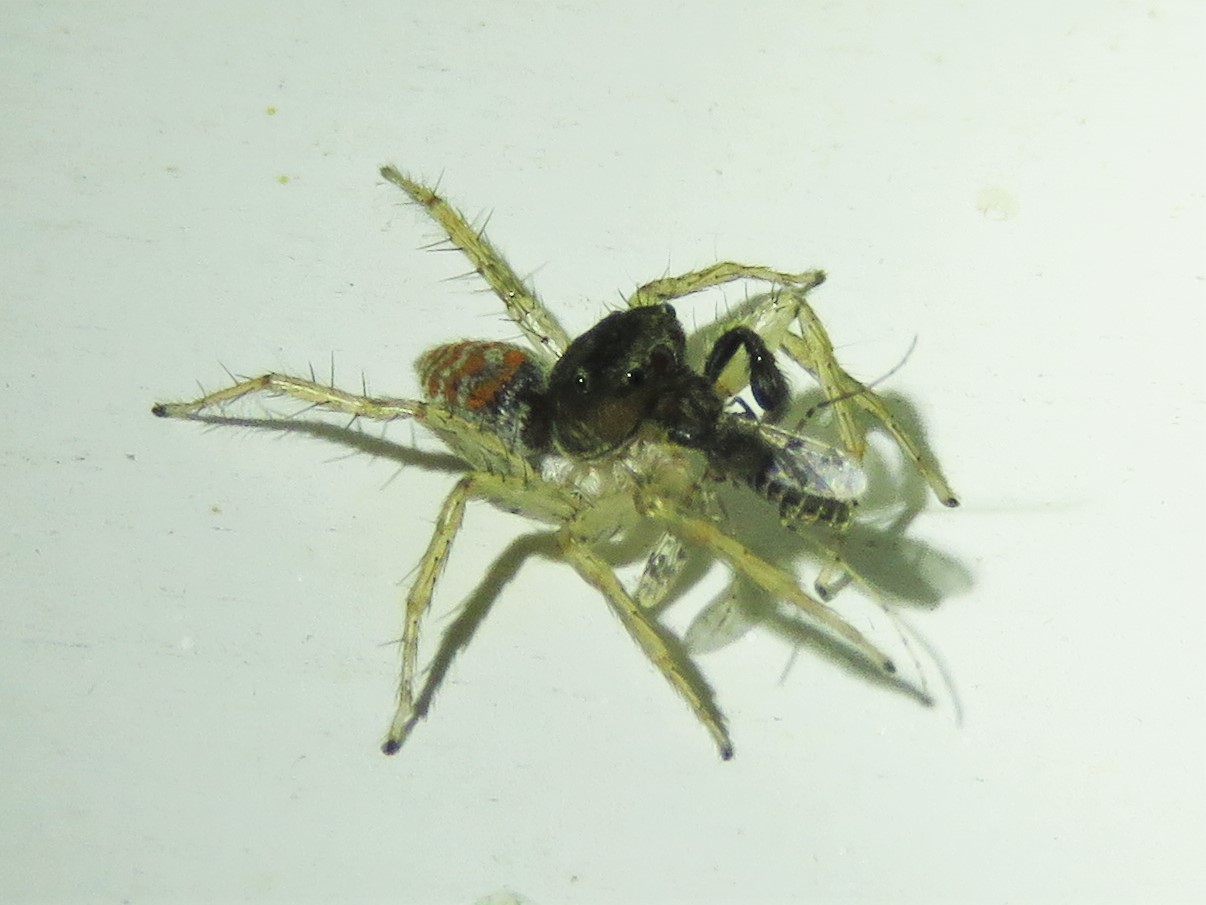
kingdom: Animalia
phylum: Arthropoda
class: Arachnida
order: Araneae
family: Salticidae
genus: Maevia
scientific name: Maevia inclemens
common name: Dimorphic jumper
